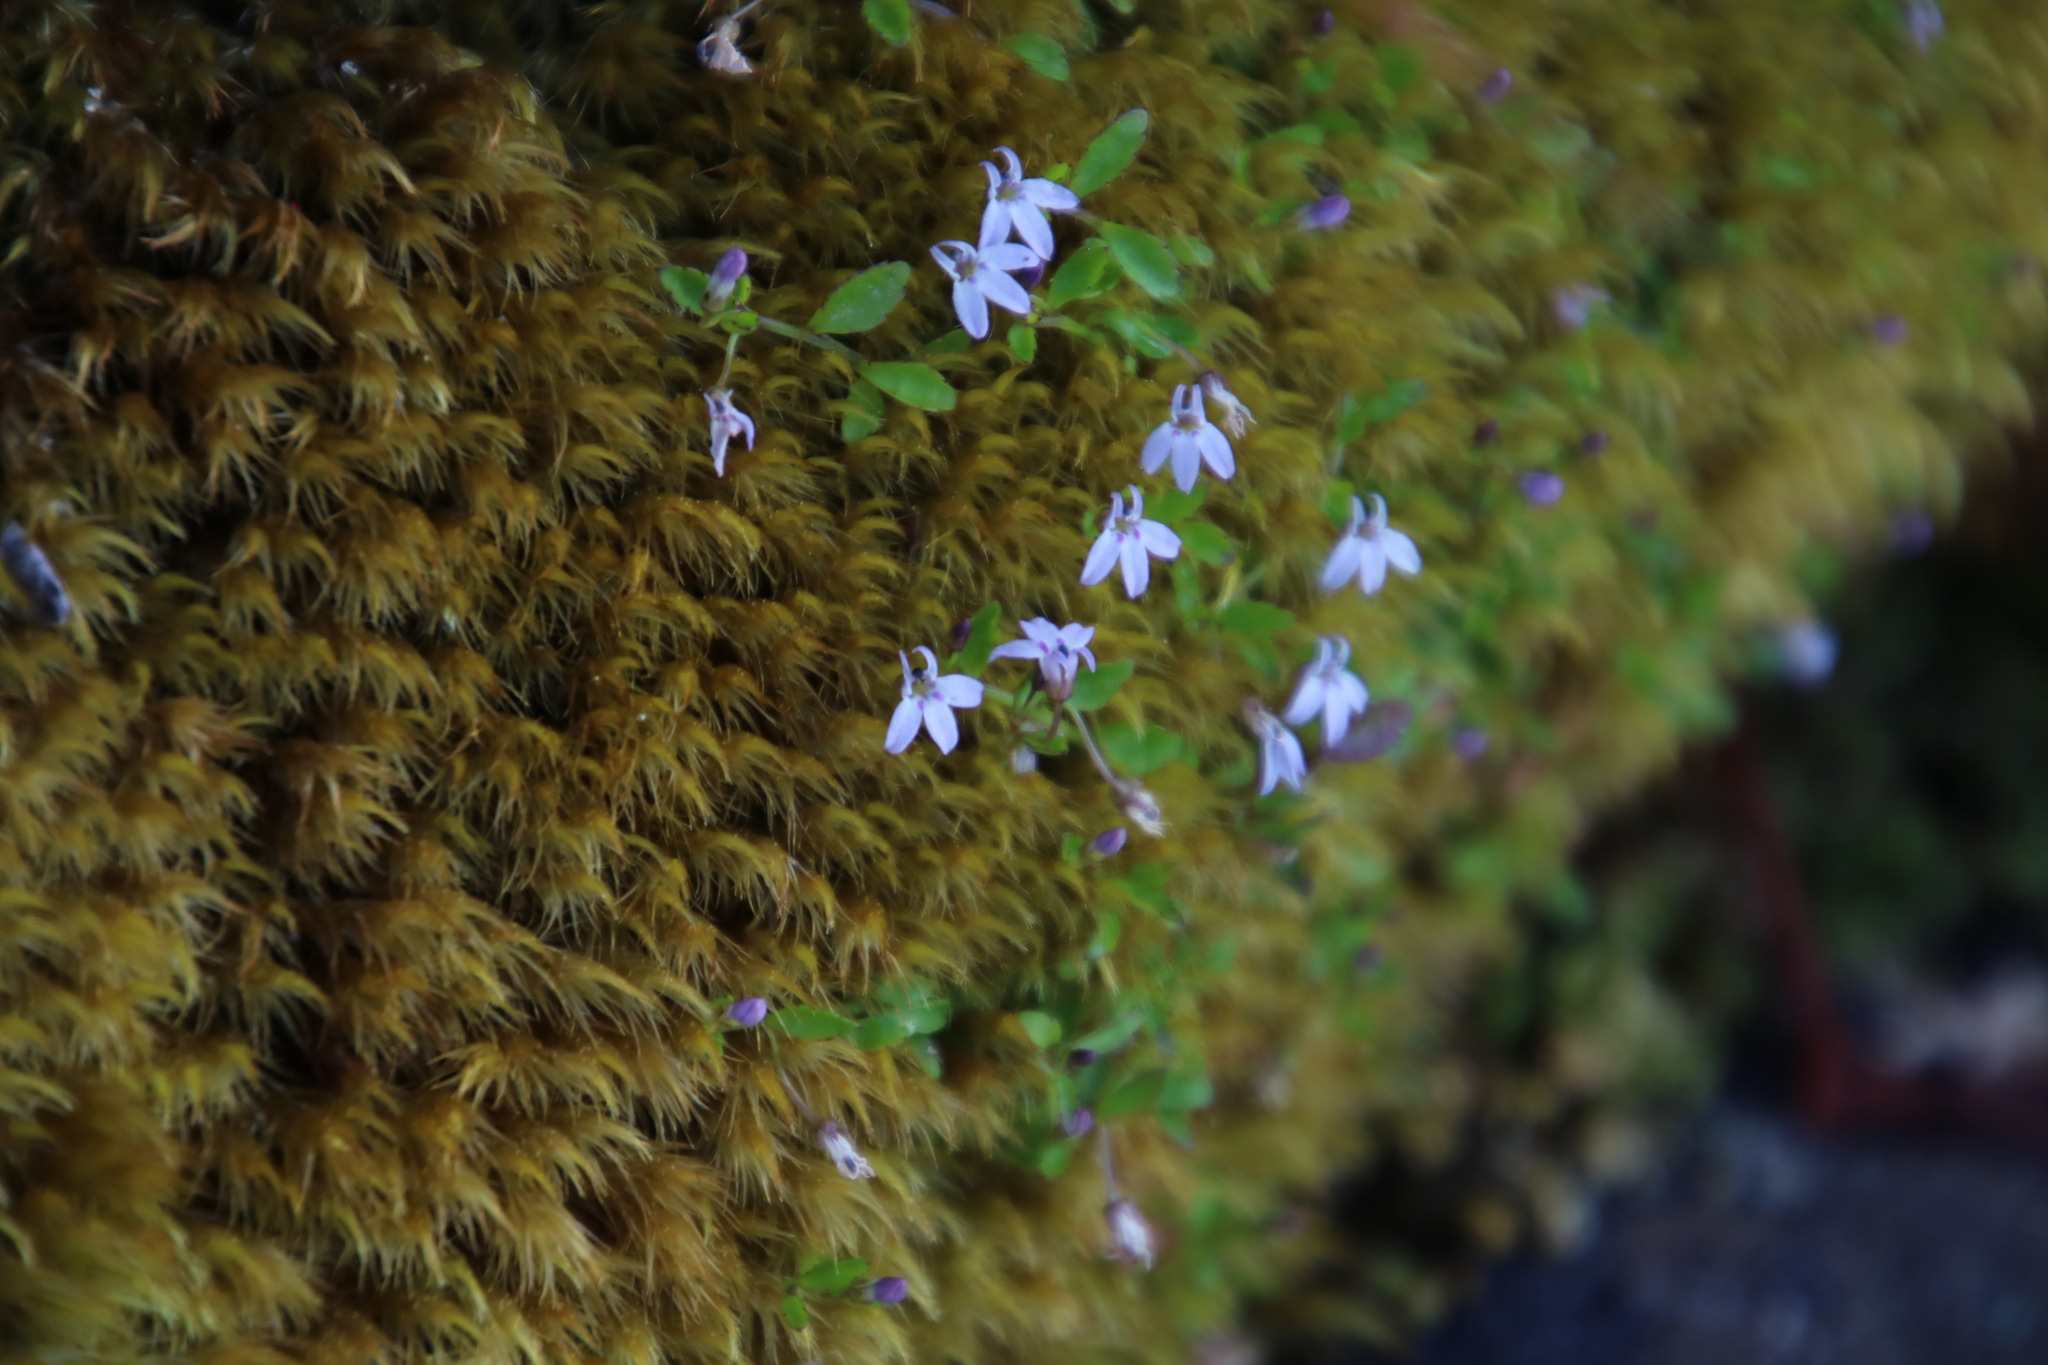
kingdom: Plantae
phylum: Tracheophyta
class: Magnoliopsida
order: Asterales
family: Campanulaceae
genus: Unigenes
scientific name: Unigenes humifusa
